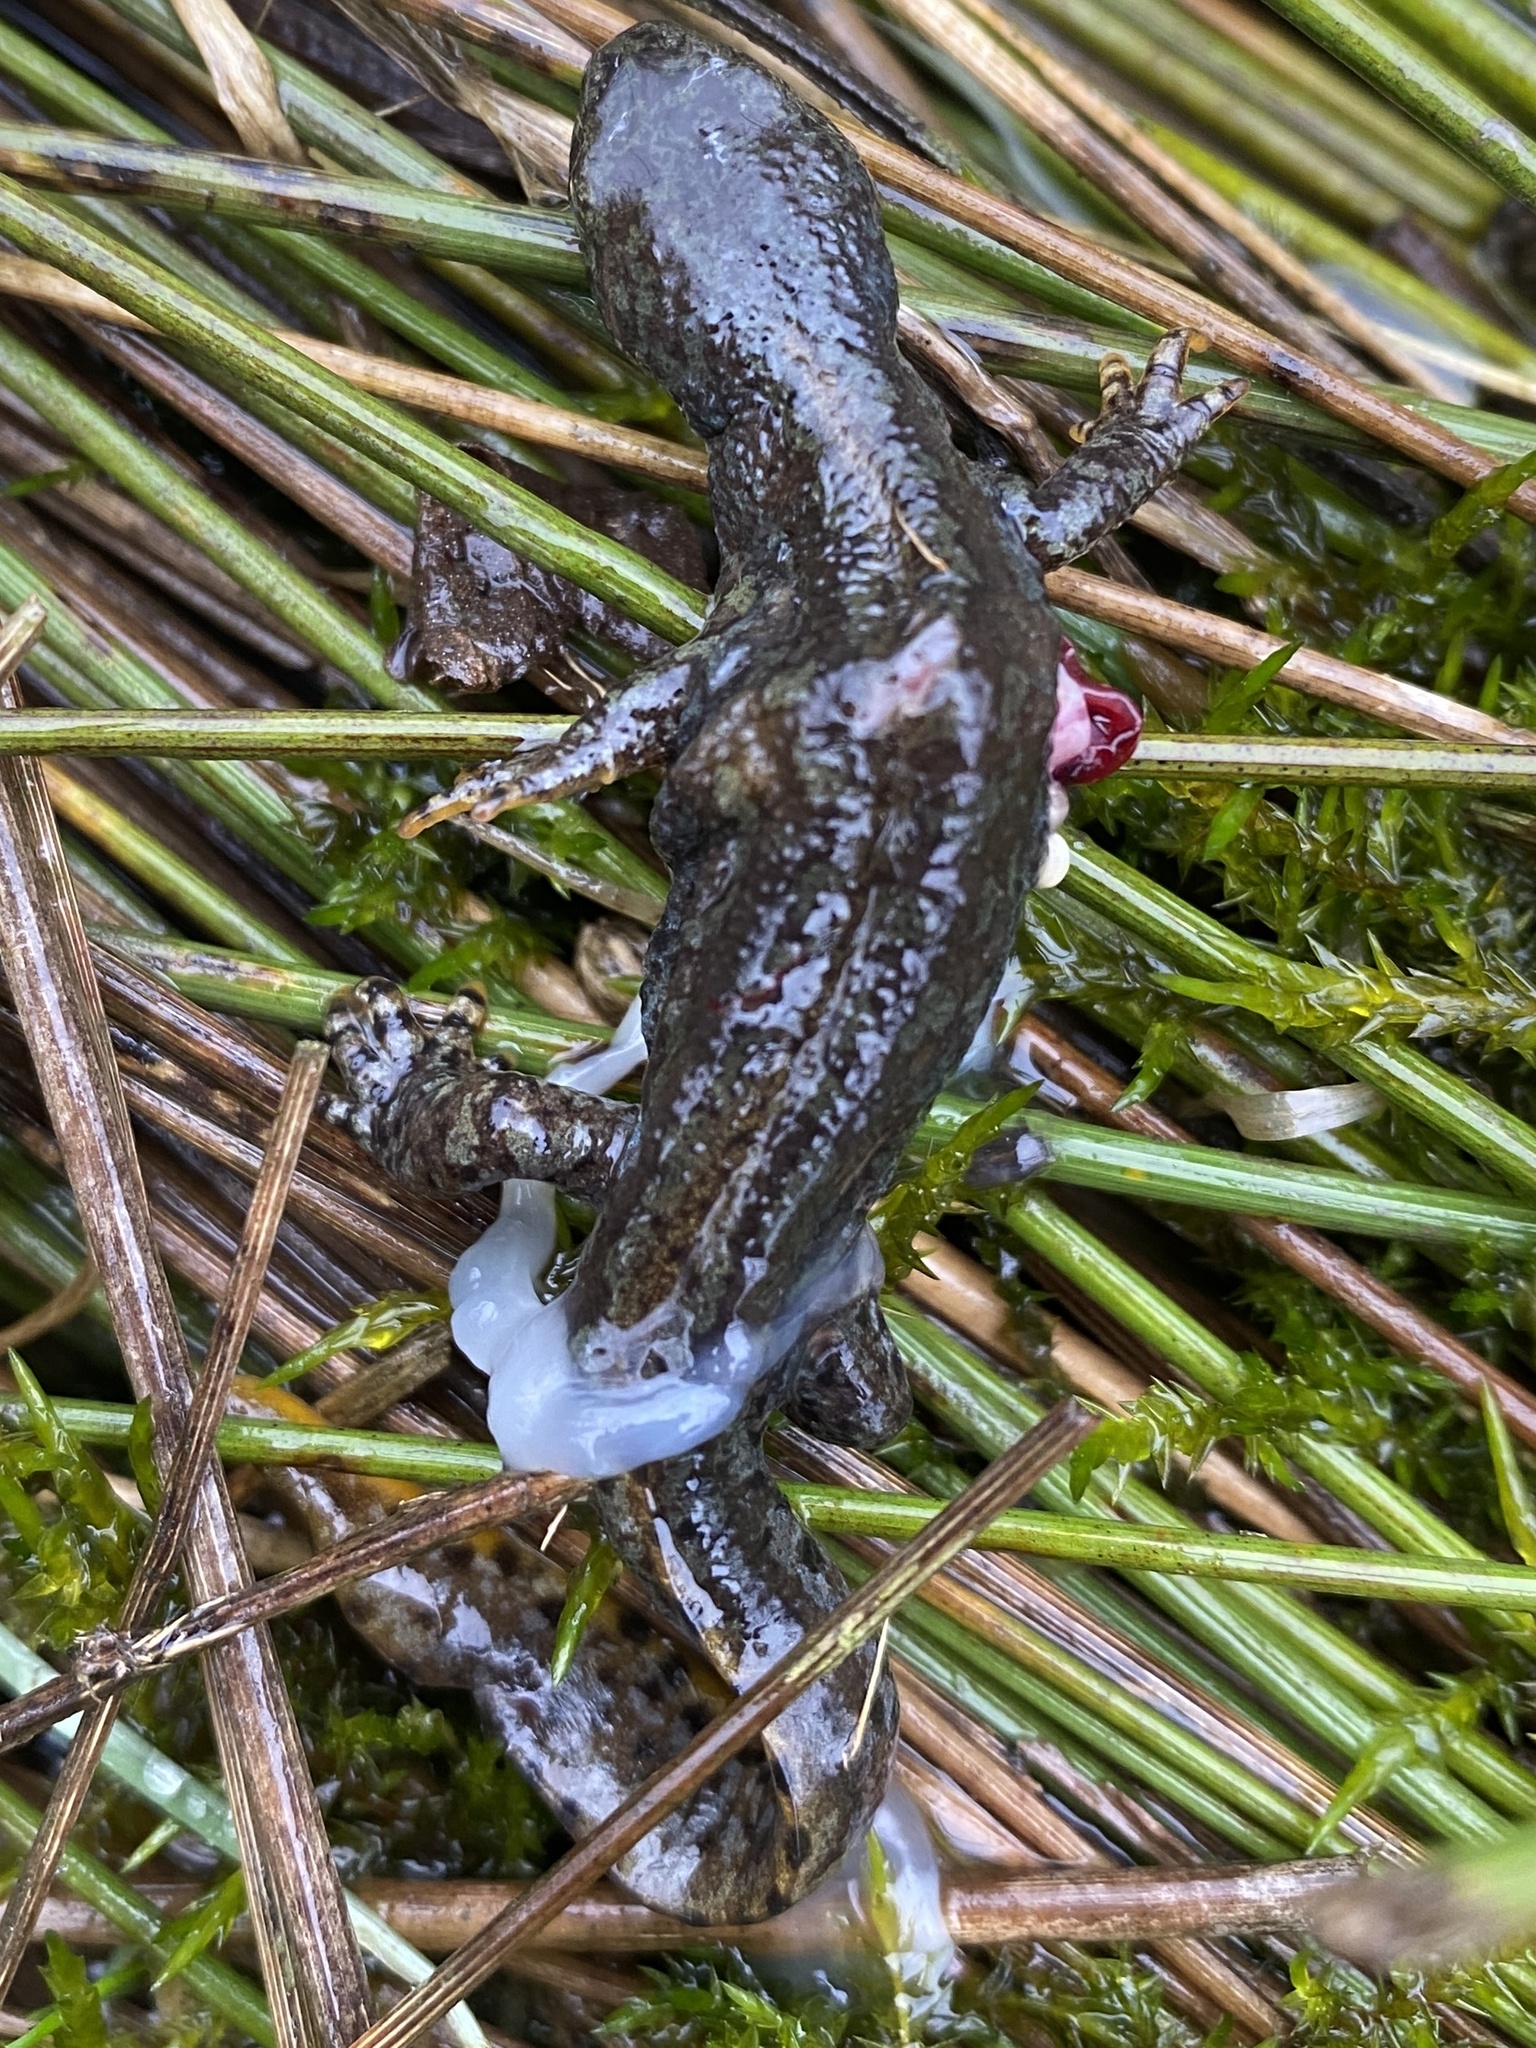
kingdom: Animalia
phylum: Chordata
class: Amphibia
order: Caudata
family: Salamandridae
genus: Ichthyosaura
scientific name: Ichthyosaura alpestris
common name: Alpine newt
